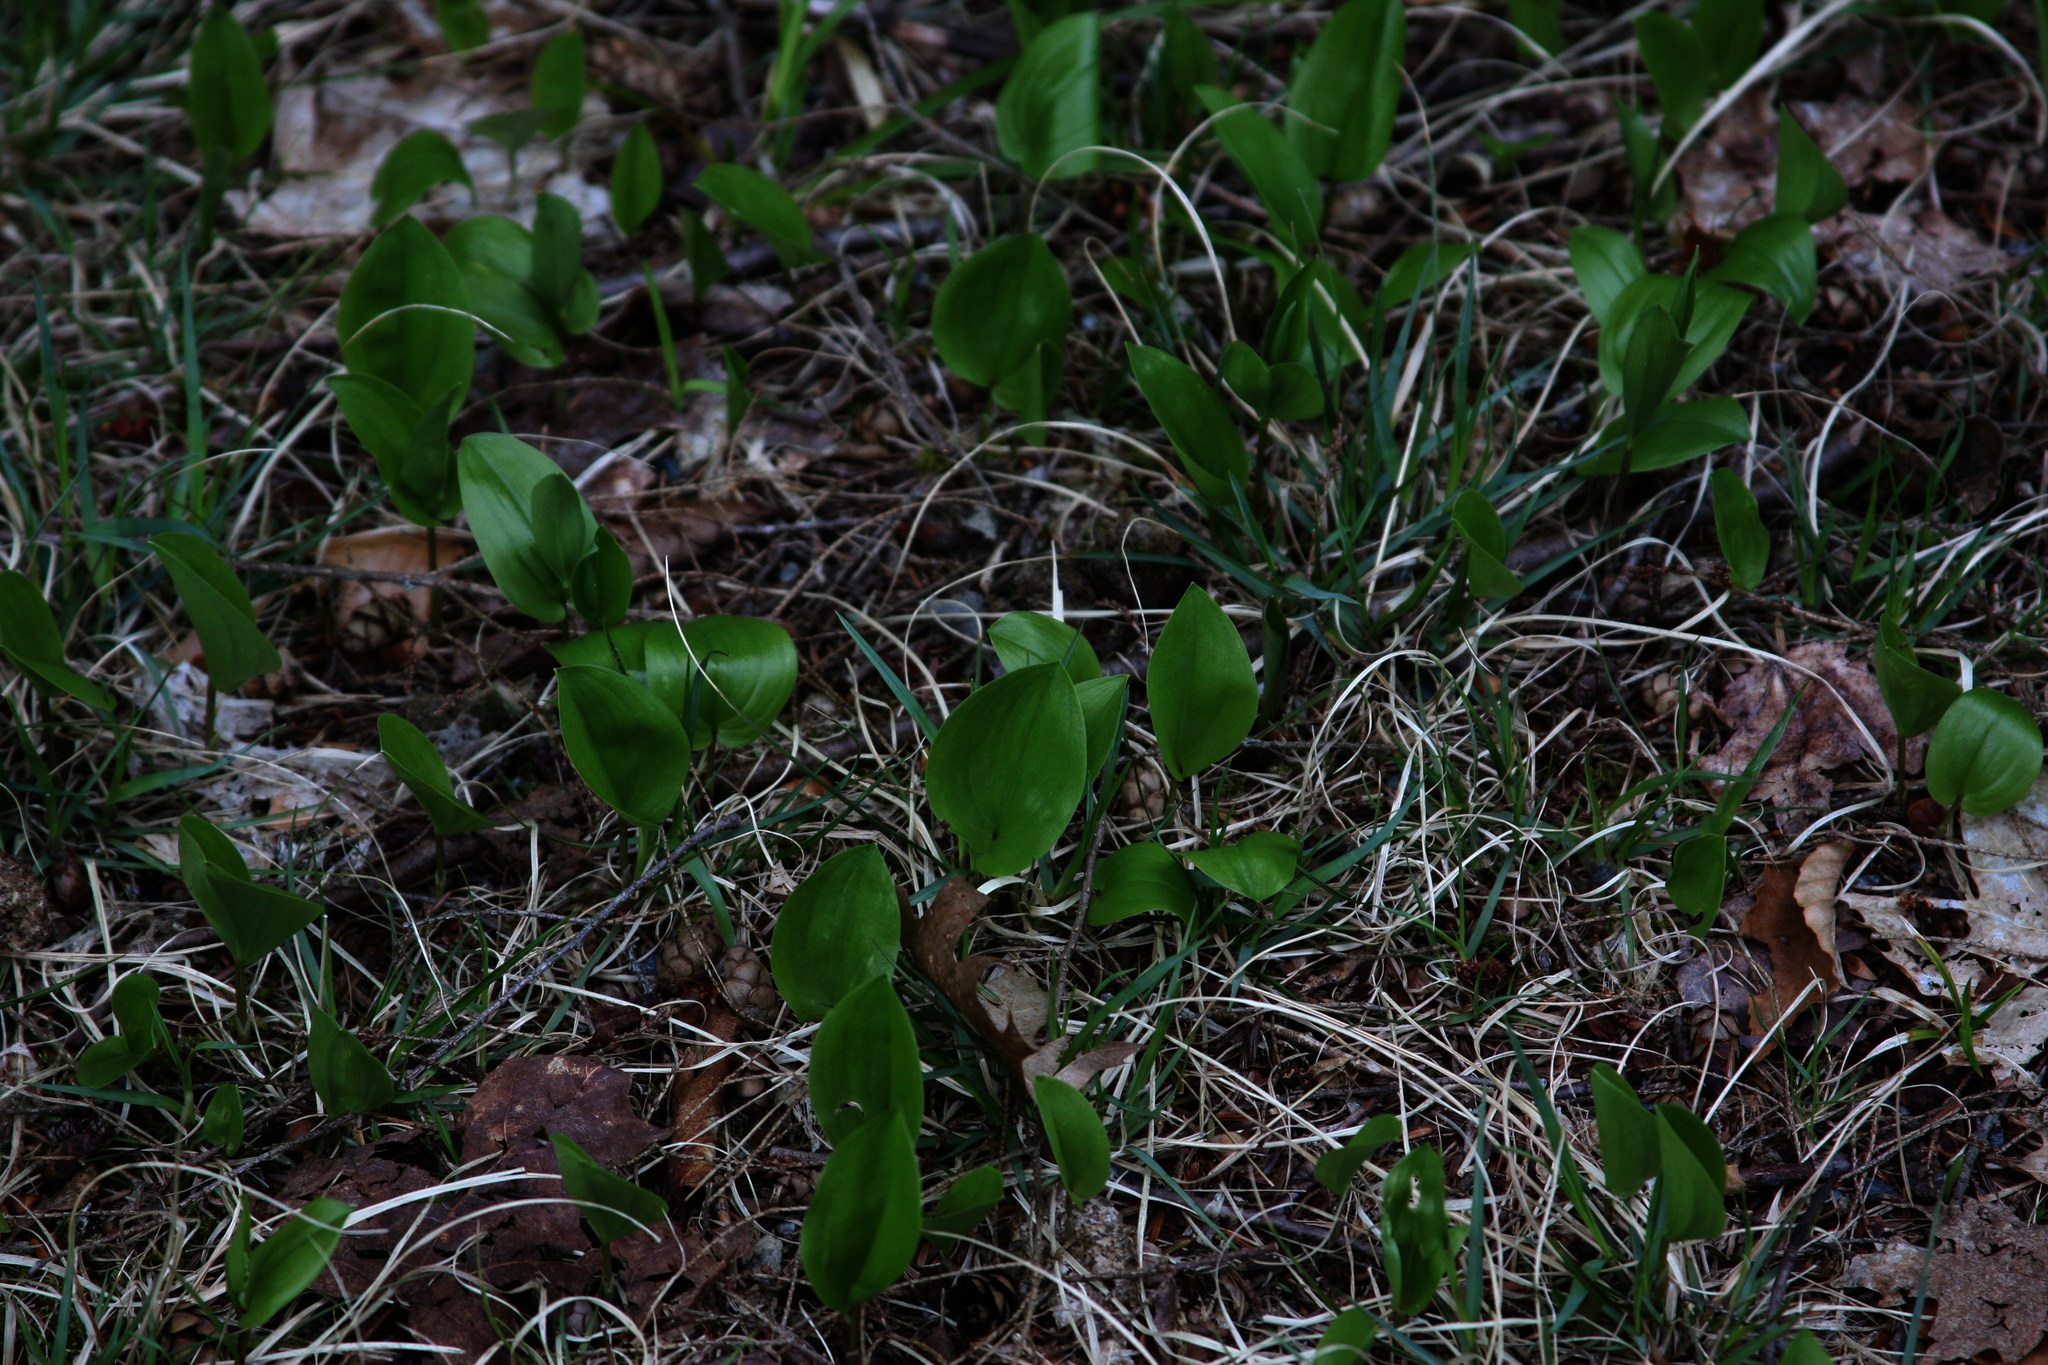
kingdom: Plantae
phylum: Tracheophyta
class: Liliopsida
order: Asparagales
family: Asparagaceae
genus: Maianthemum
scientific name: Maianthemum canadense
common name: False lily-of-the-valley
